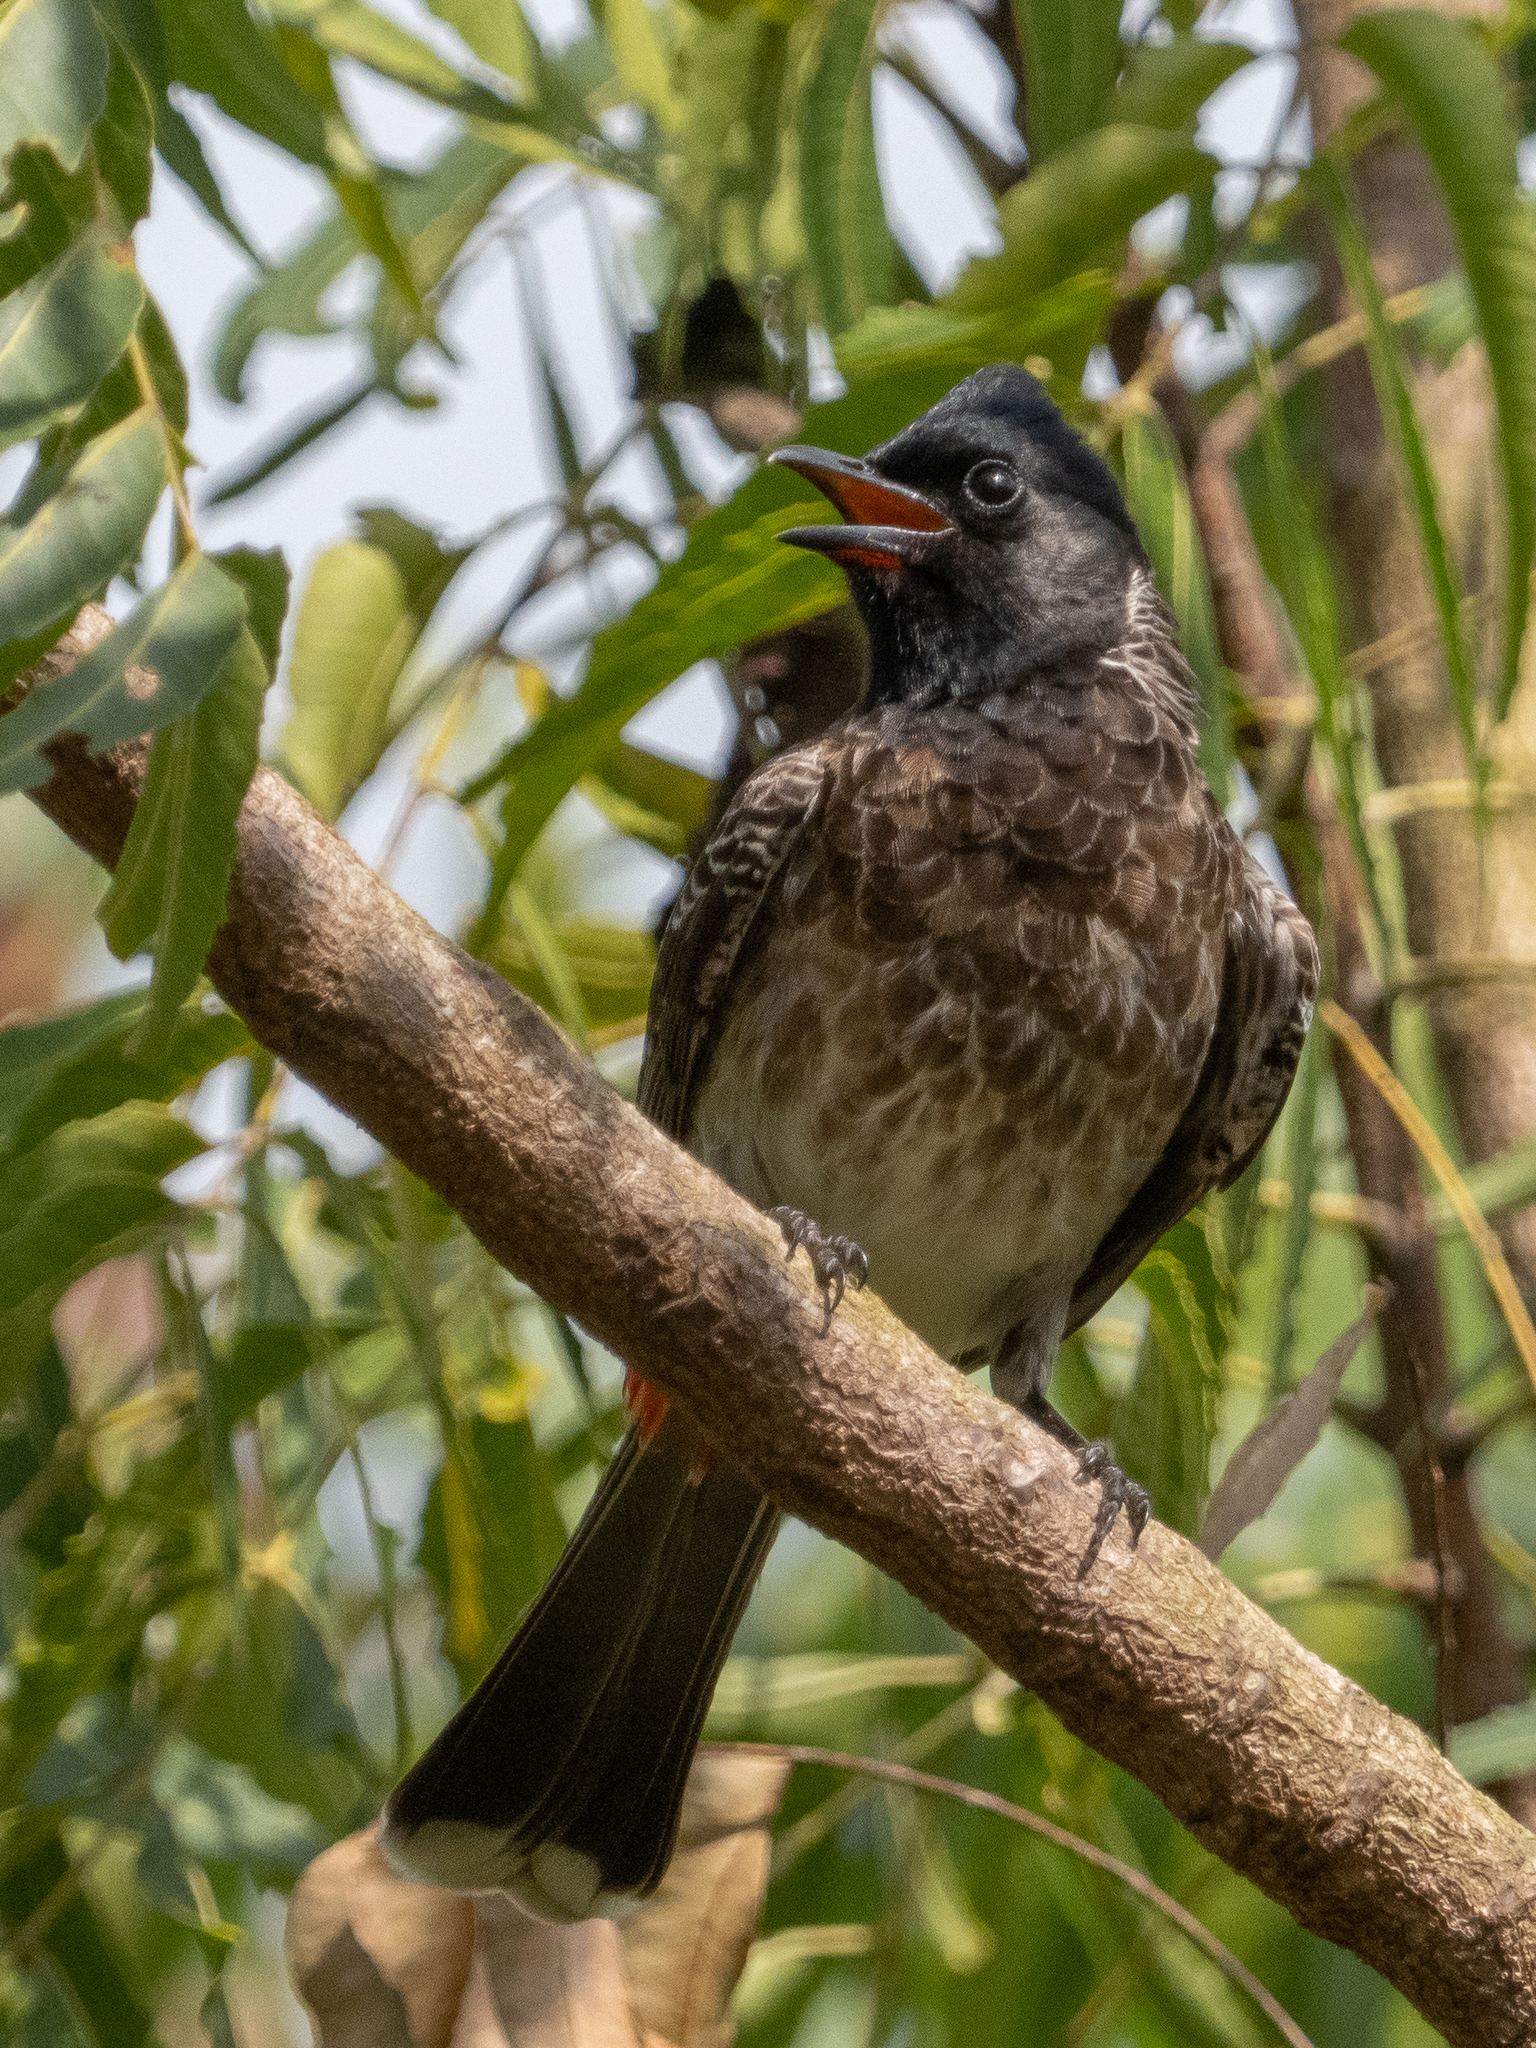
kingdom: Animalia
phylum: Chordata
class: Aves
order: Passeriformes
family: Pycnonotidae
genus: Pycnonotus
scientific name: Pycnonotus cafer
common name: Red-vented bulbul
